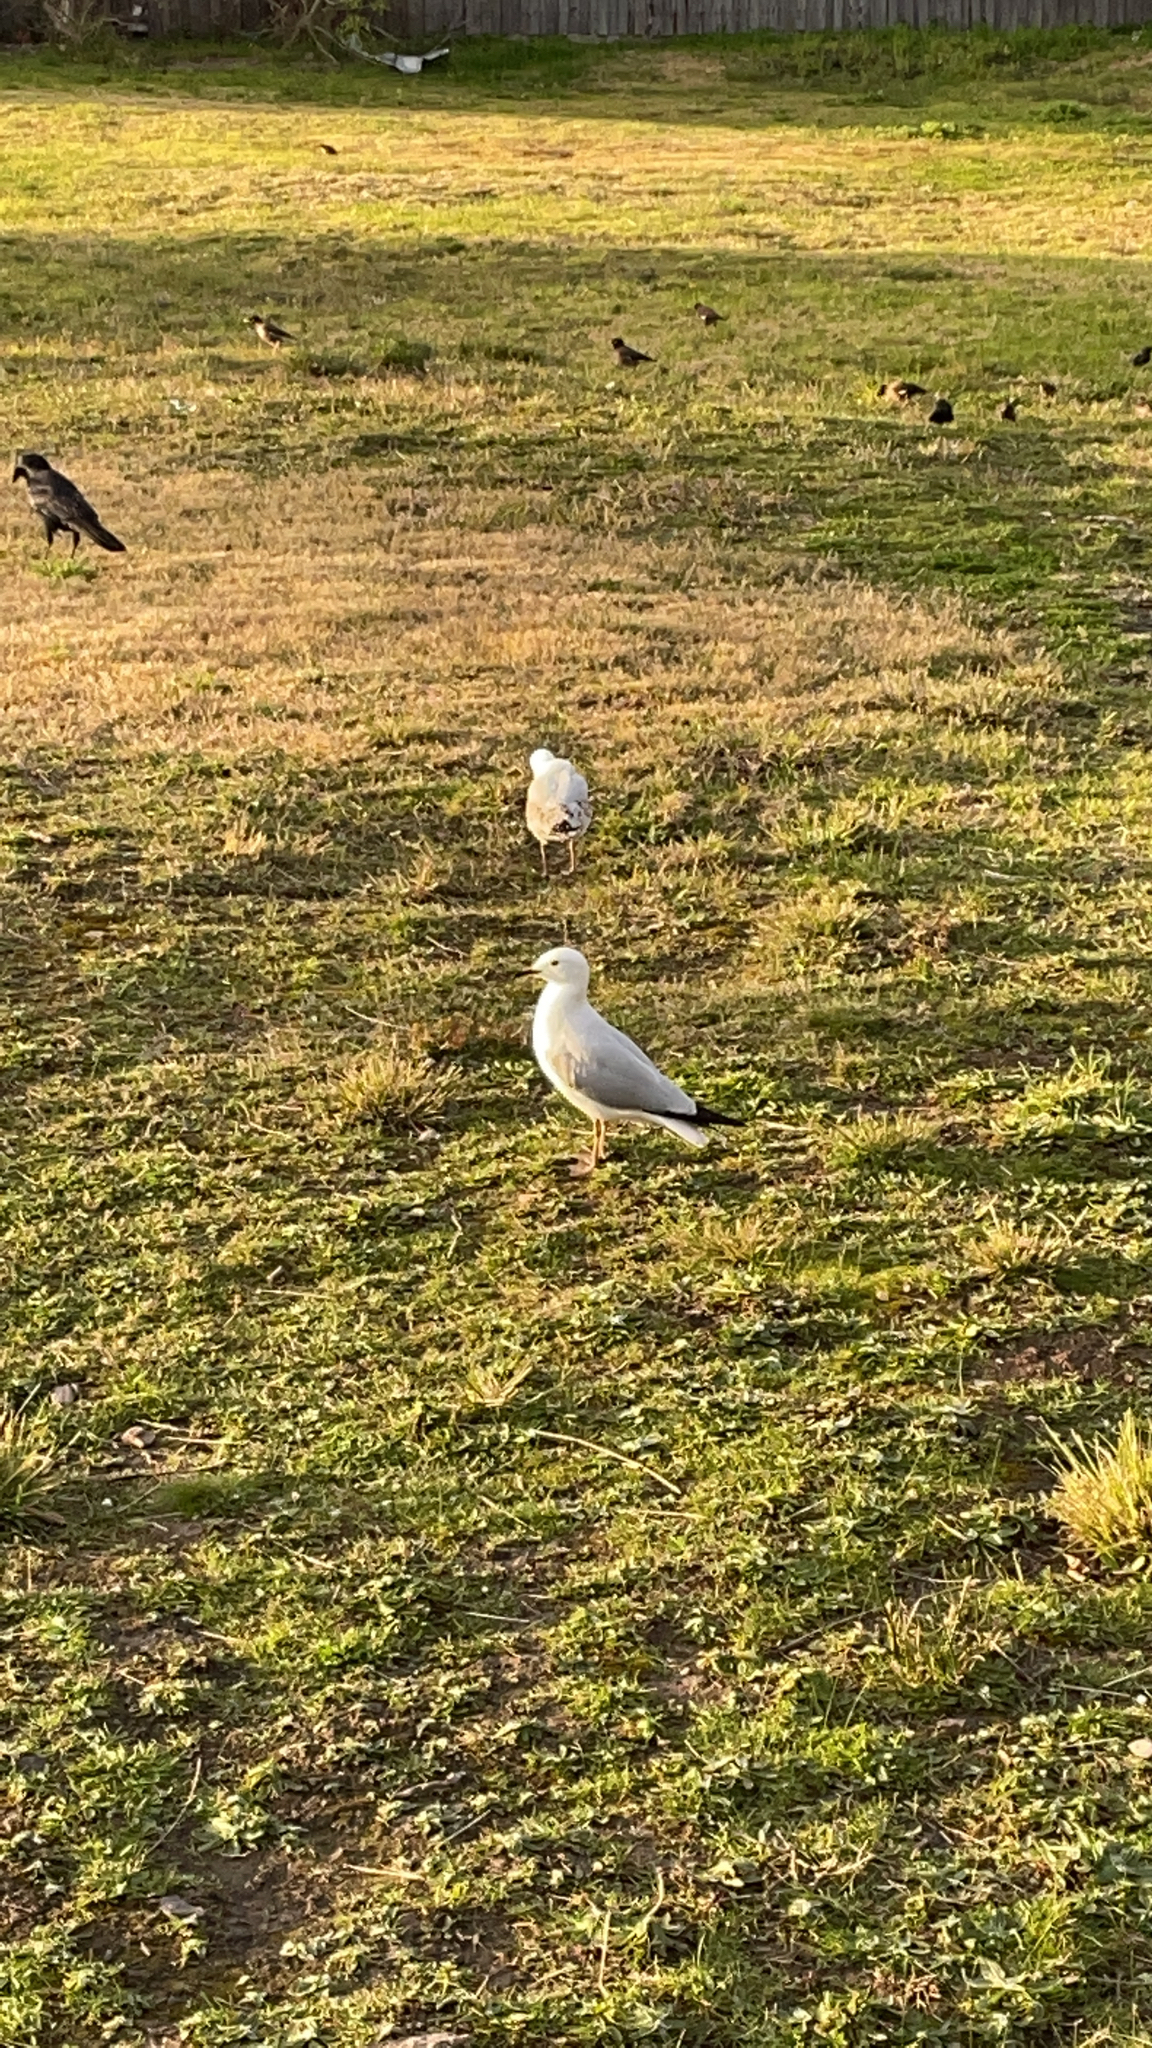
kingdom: Animalia
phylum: Chordata
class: Aves
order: Charadriiformes
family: Laridae
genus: Chroicocephalus
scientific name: Chroicocephalus novaehollandiae
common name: Silver gull
